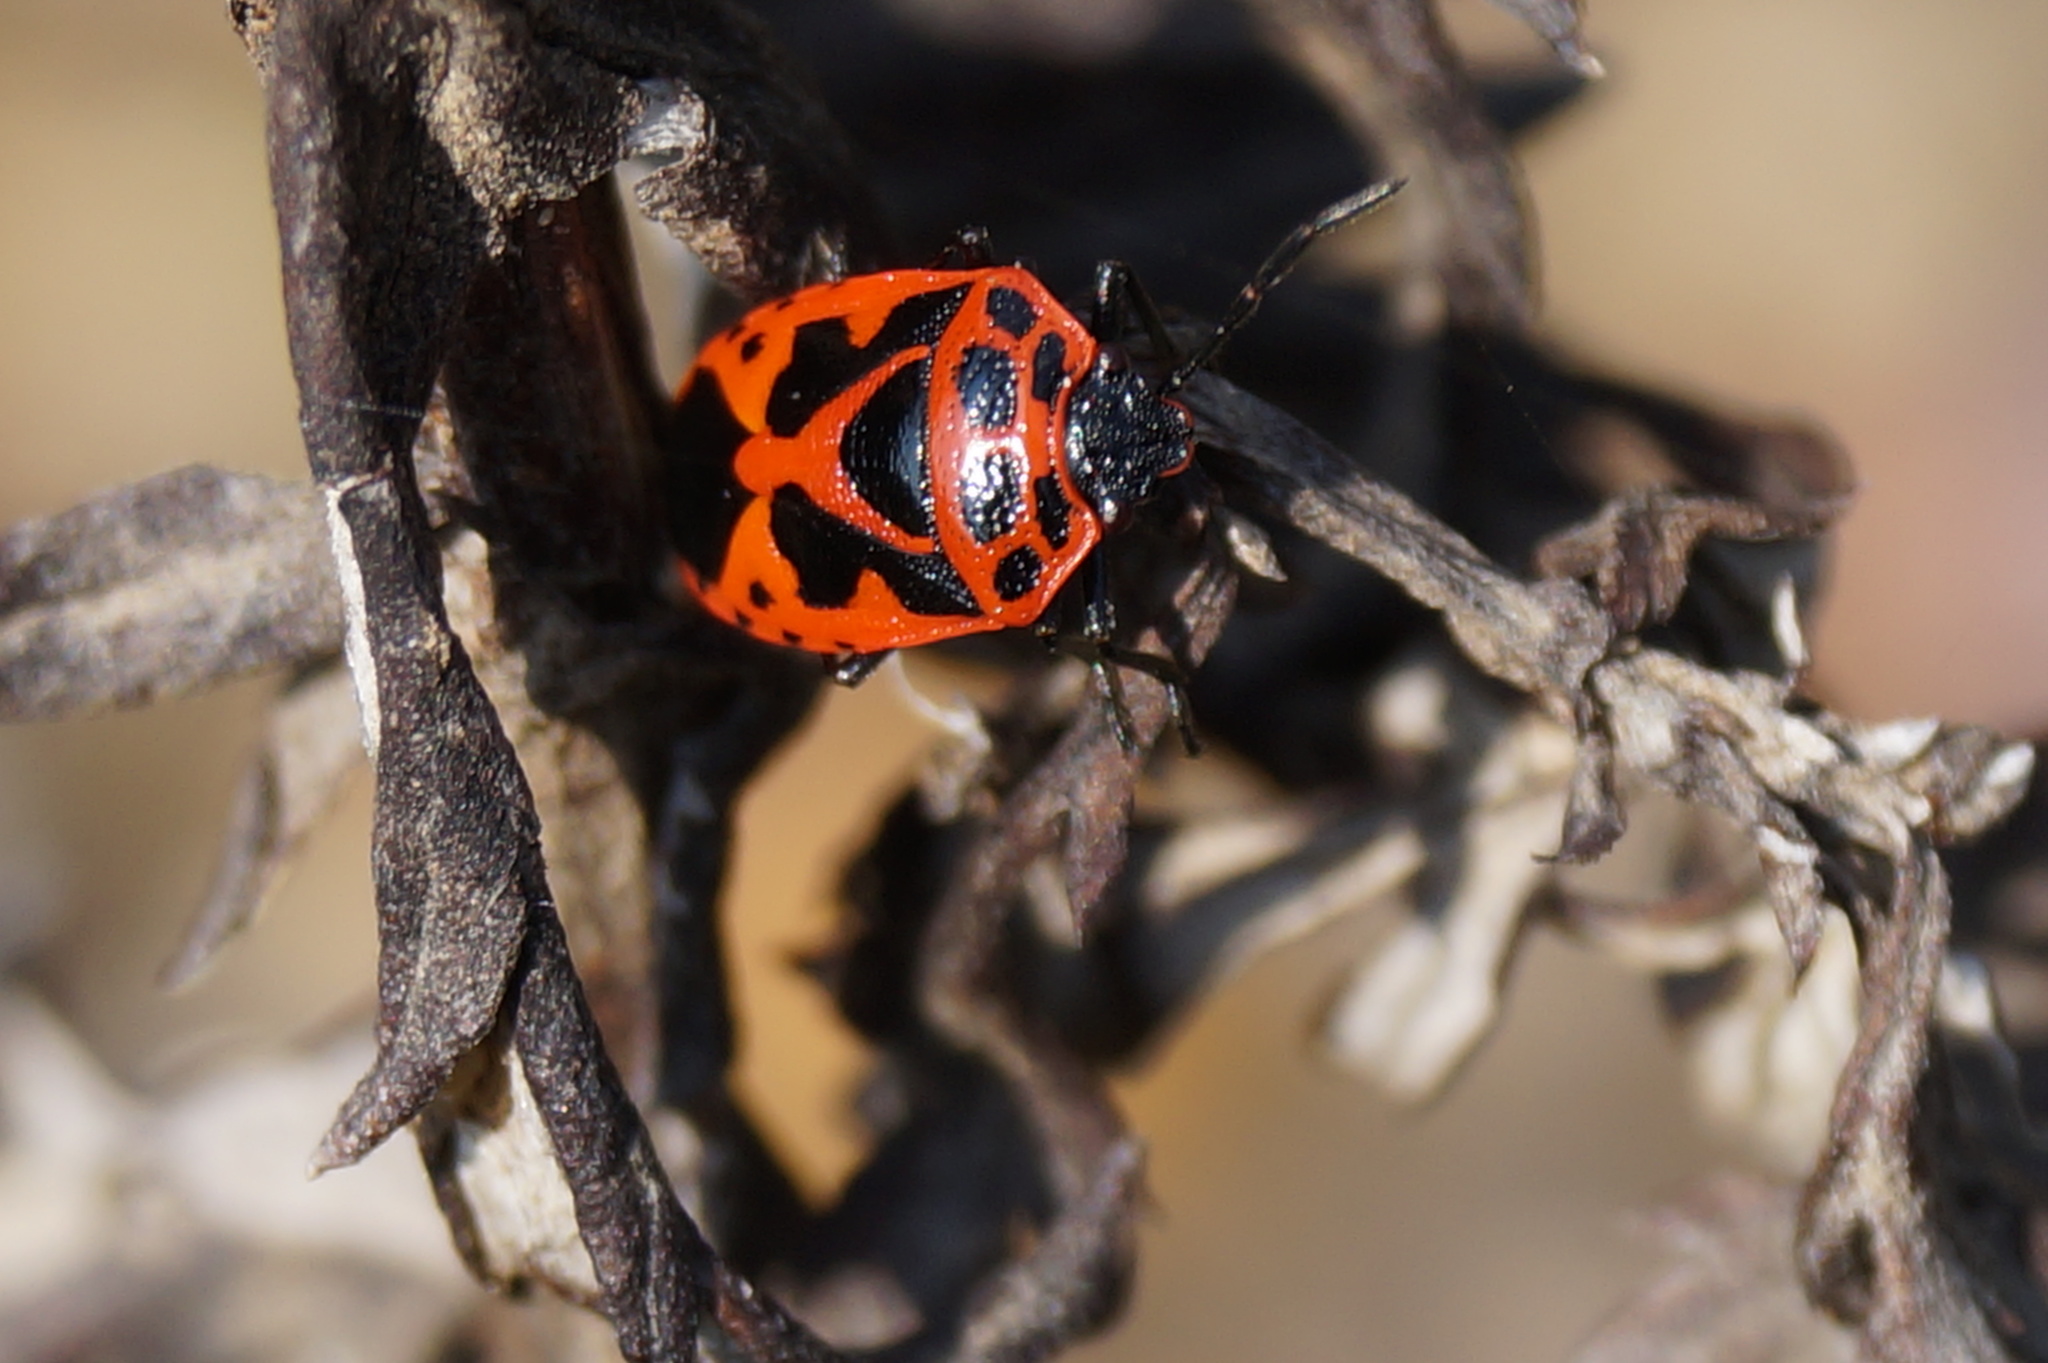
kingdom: Animalia
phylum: Arthropoda
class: Insecta
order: Hemiptera
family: Pentatomidae
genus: Eurydema
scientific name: Eurydema dominulus
